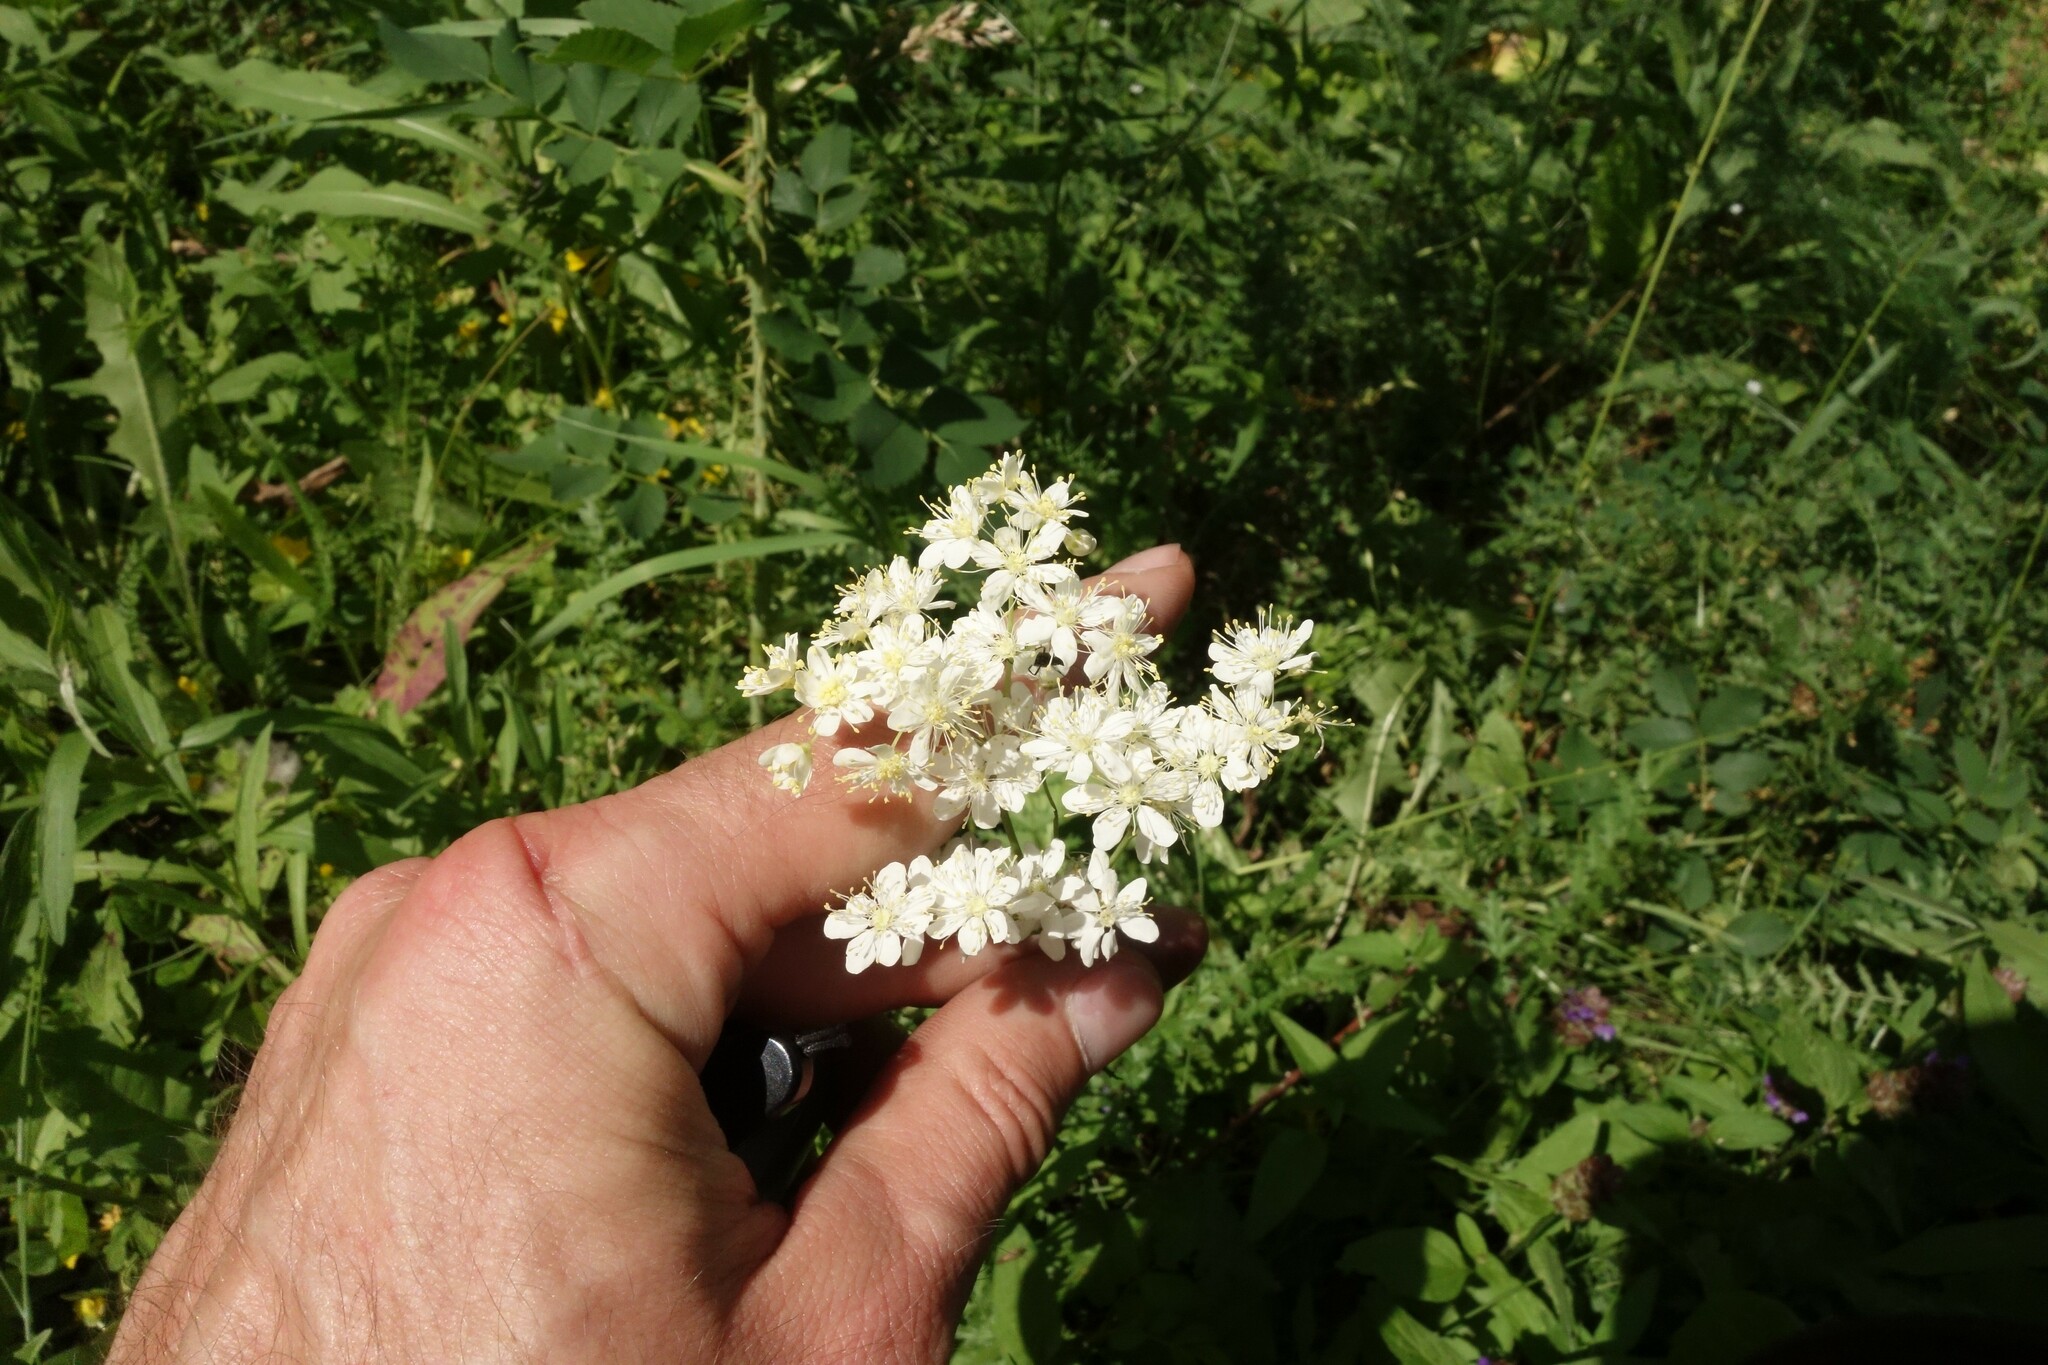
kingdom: Plantae
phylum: Tracheophyta
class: Magnoliopsida
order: Rosales
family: Rosaceae
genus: Filipendula
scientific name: Filipendula vulgaris
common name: Dropwort
